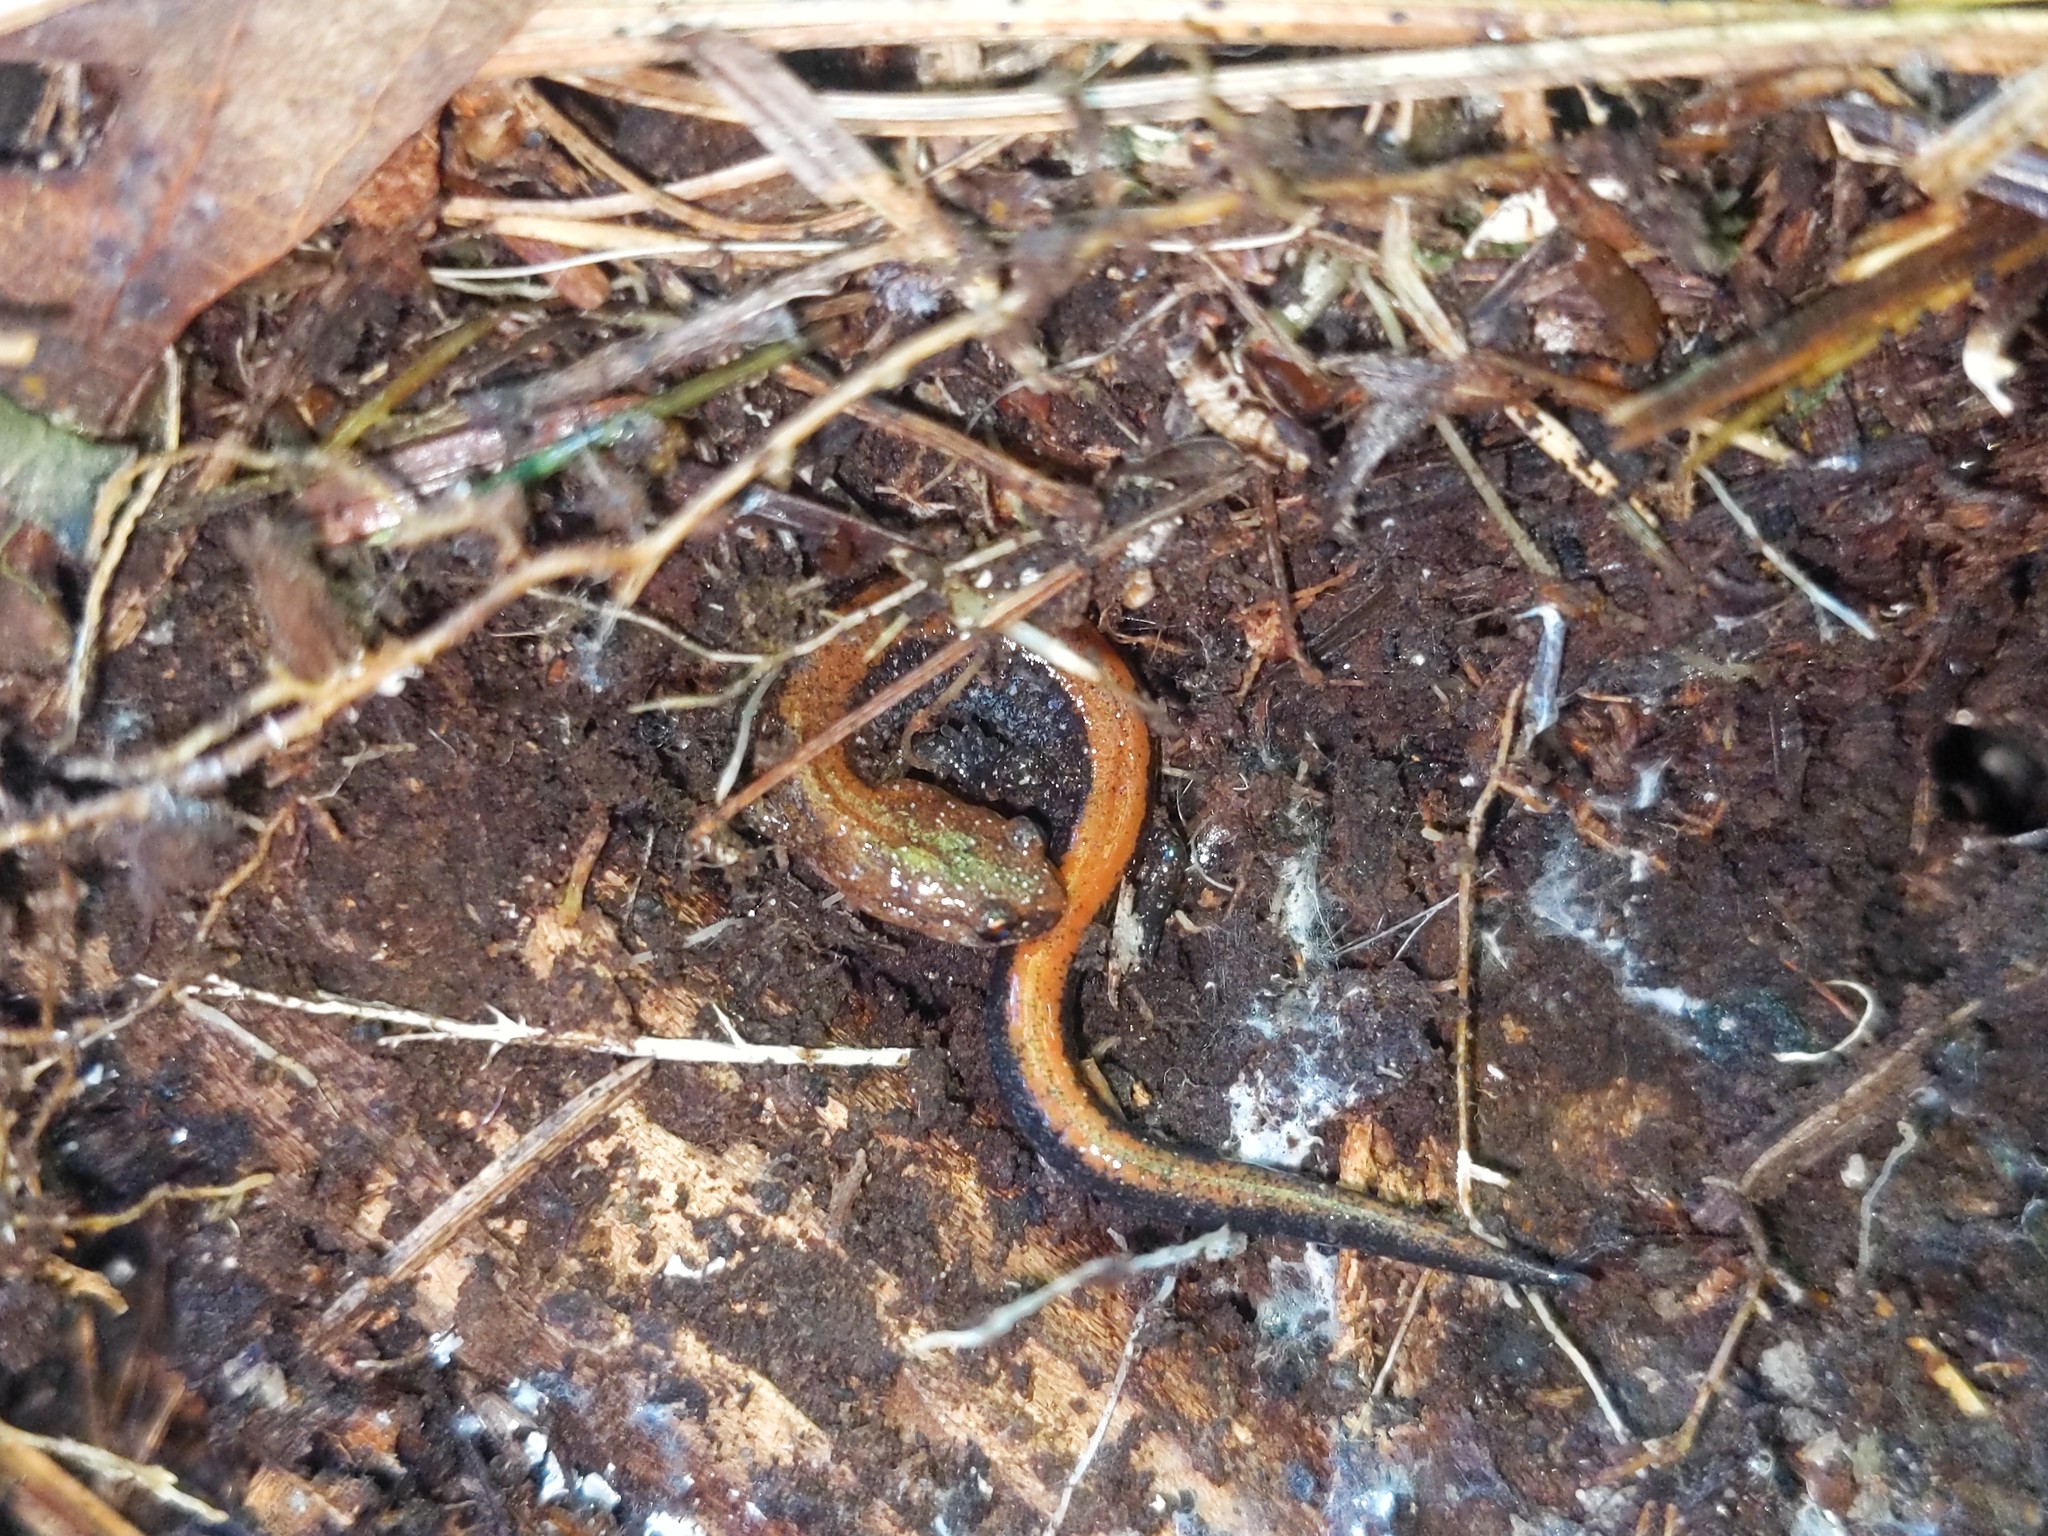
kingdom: Animalia
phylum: Chordata
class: Amphibia
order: Caudata
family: Plethodontidae
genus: Plethodon
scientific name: Plethodon cinereus
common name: Redback salamander
